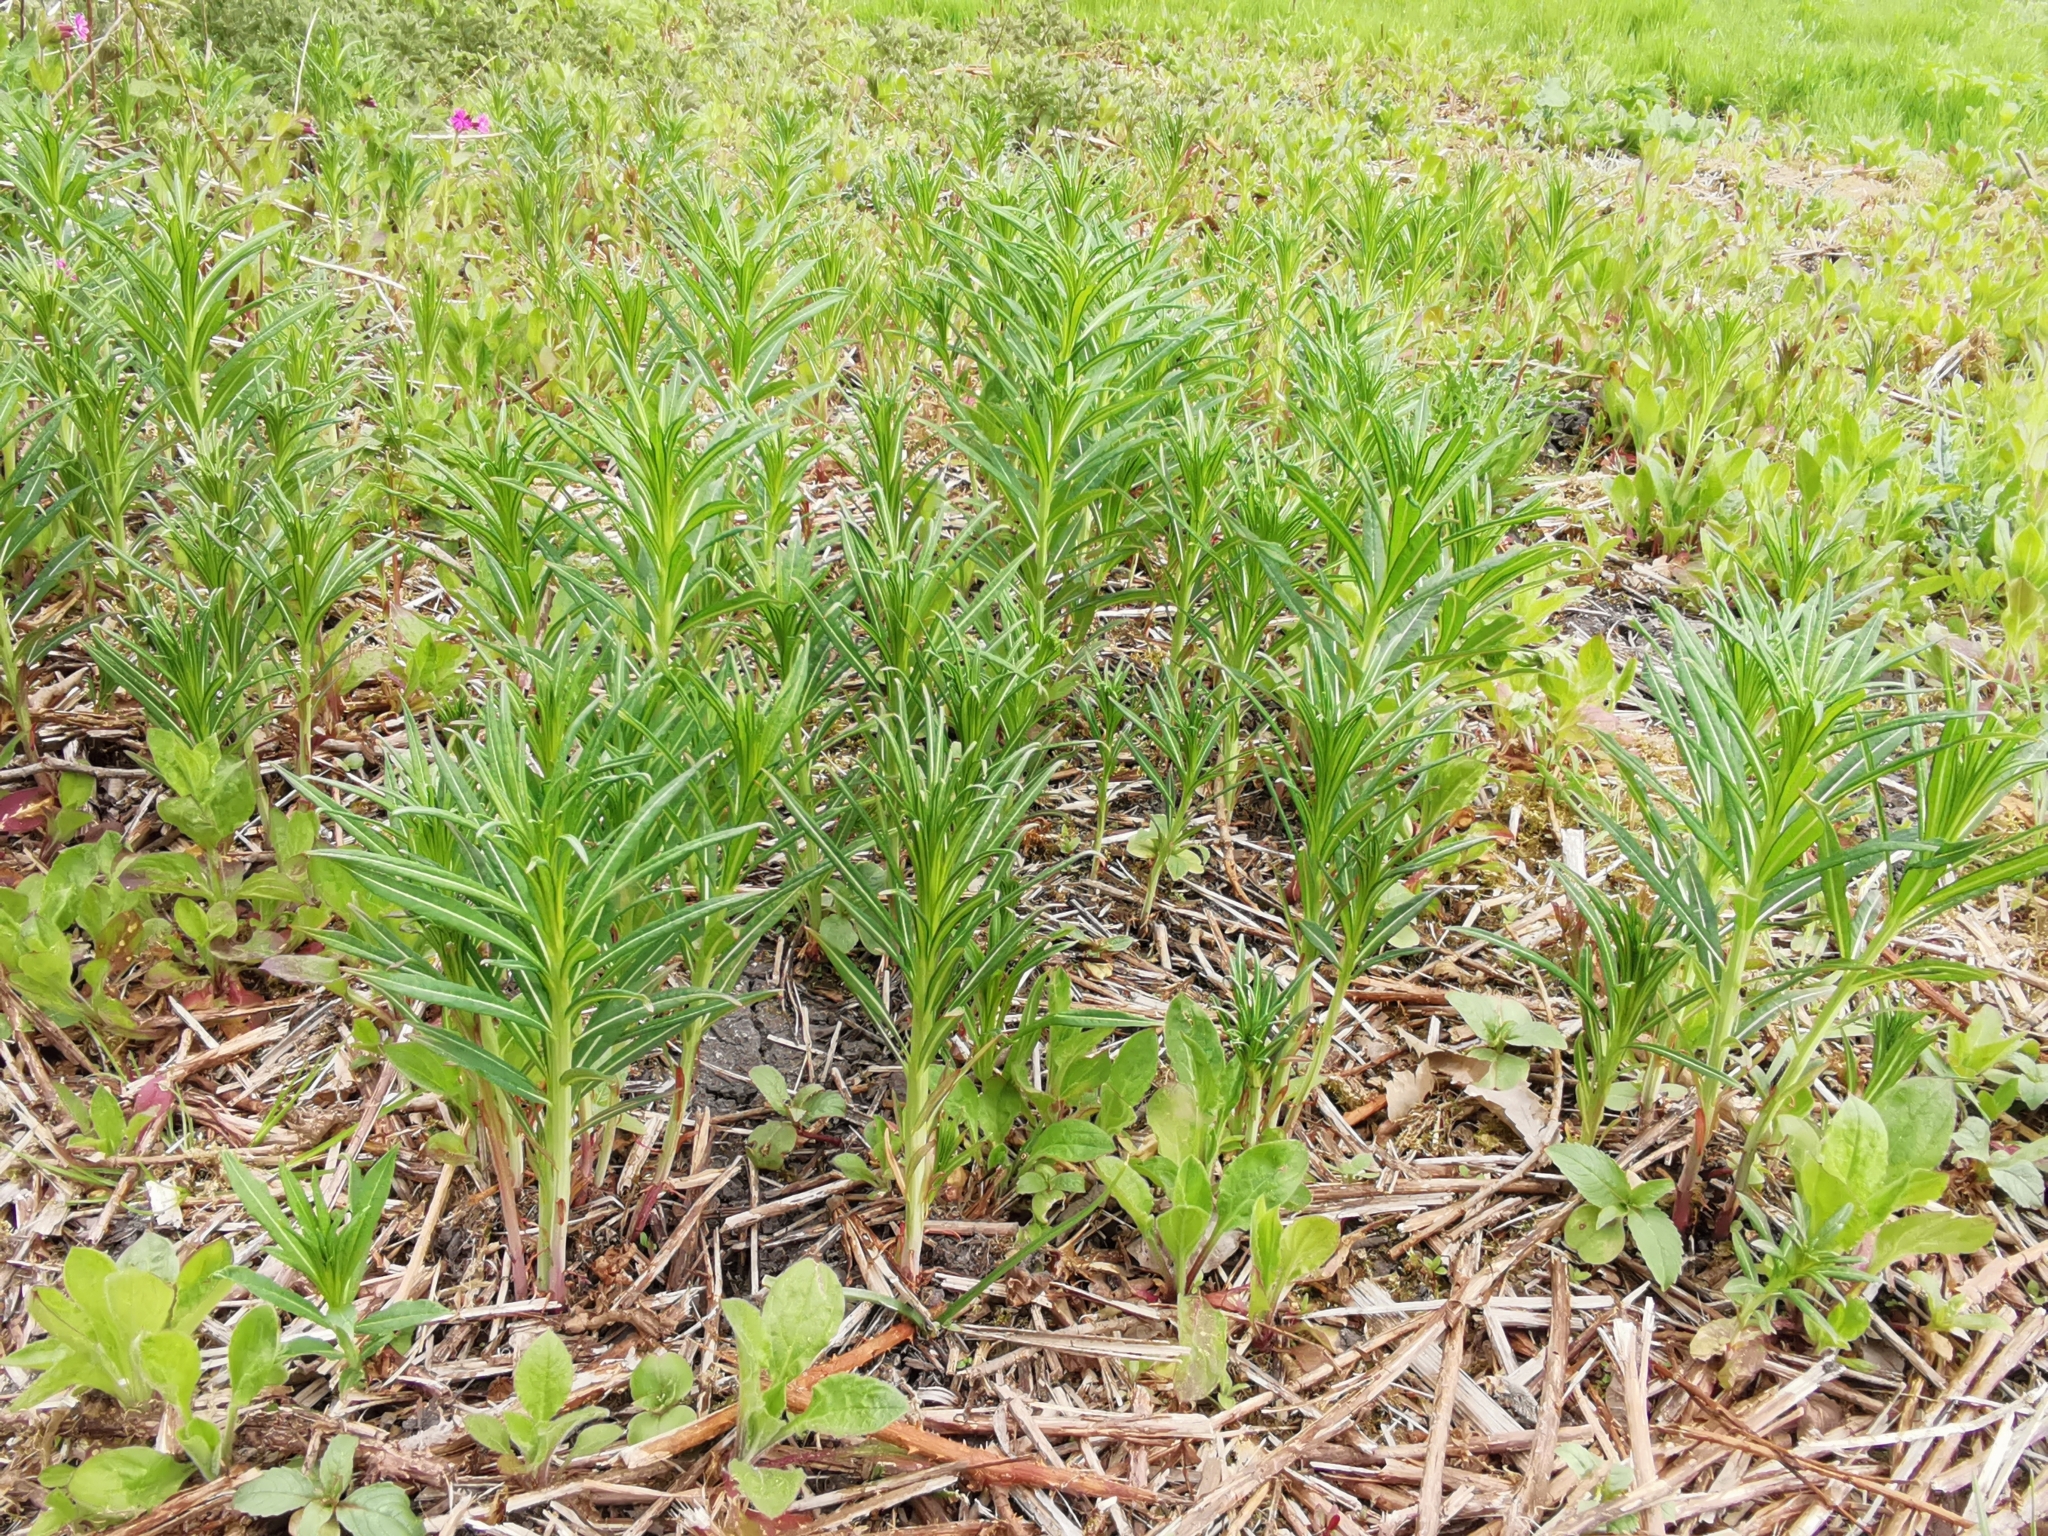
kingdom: Plantae
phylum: Tracheophyta
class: Magnoliopsida
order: Myrtales
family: Onagraceae
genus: Chamaenerion
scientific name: Chamaenerion angustifolium
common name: Fireweed
